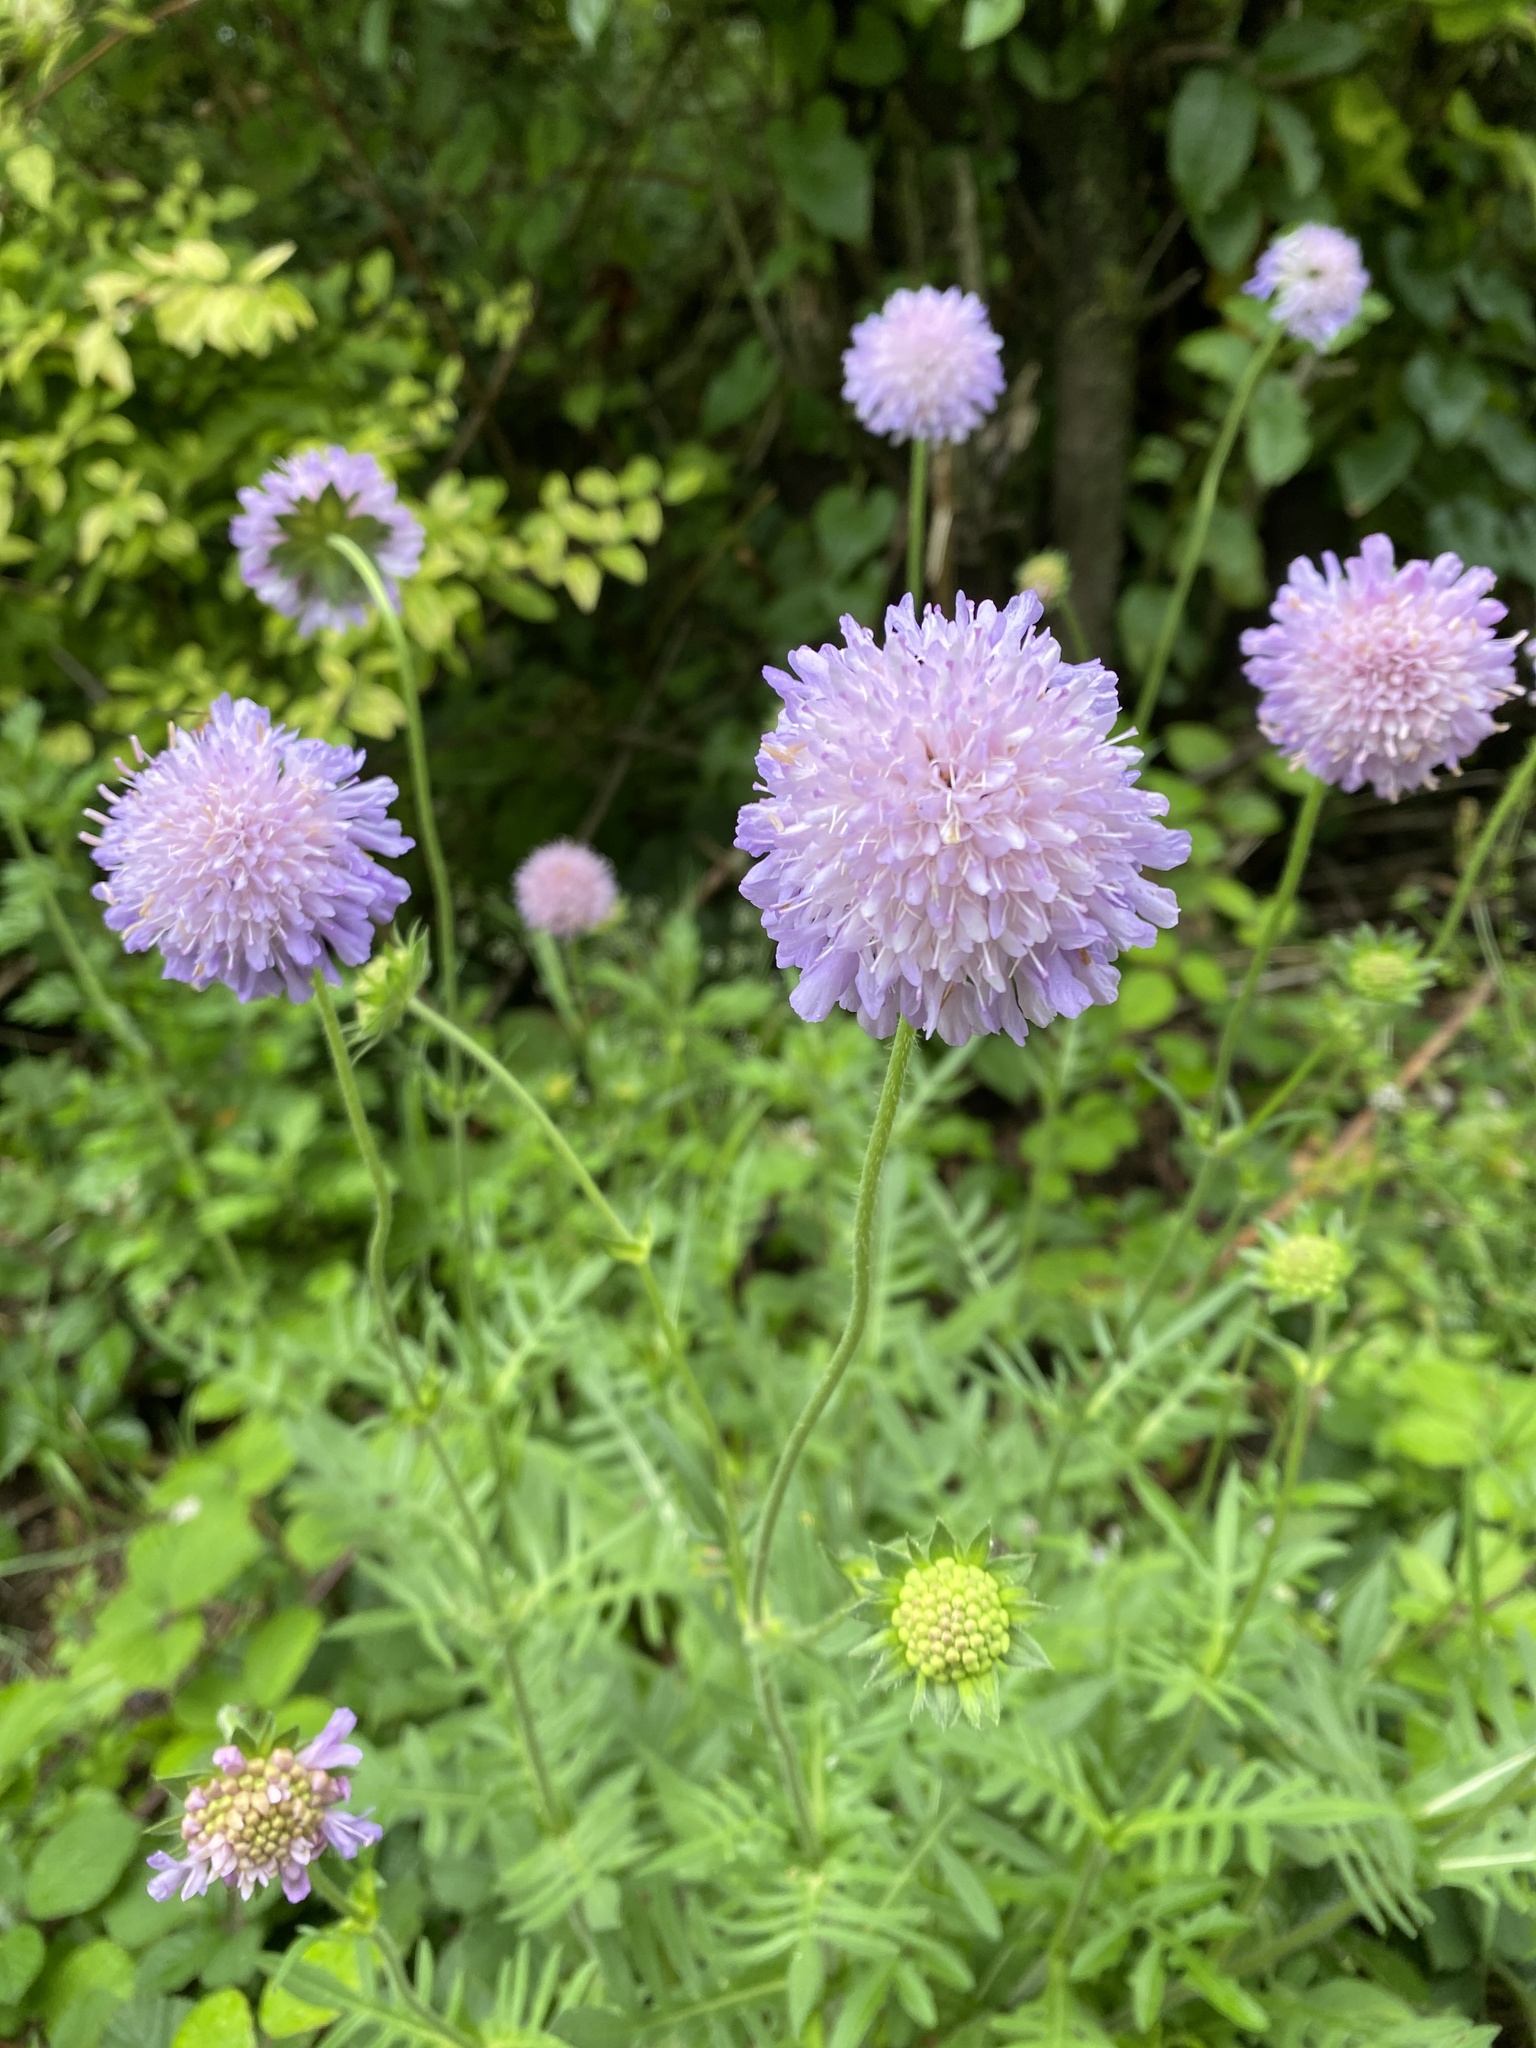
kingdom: Plantae
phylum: Tracheophyta
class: Magnoliopsida
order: Dipsacales
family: Caprifoliaceae
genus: Knautia
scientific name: Knautia arvensis
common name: Field scabiosa
